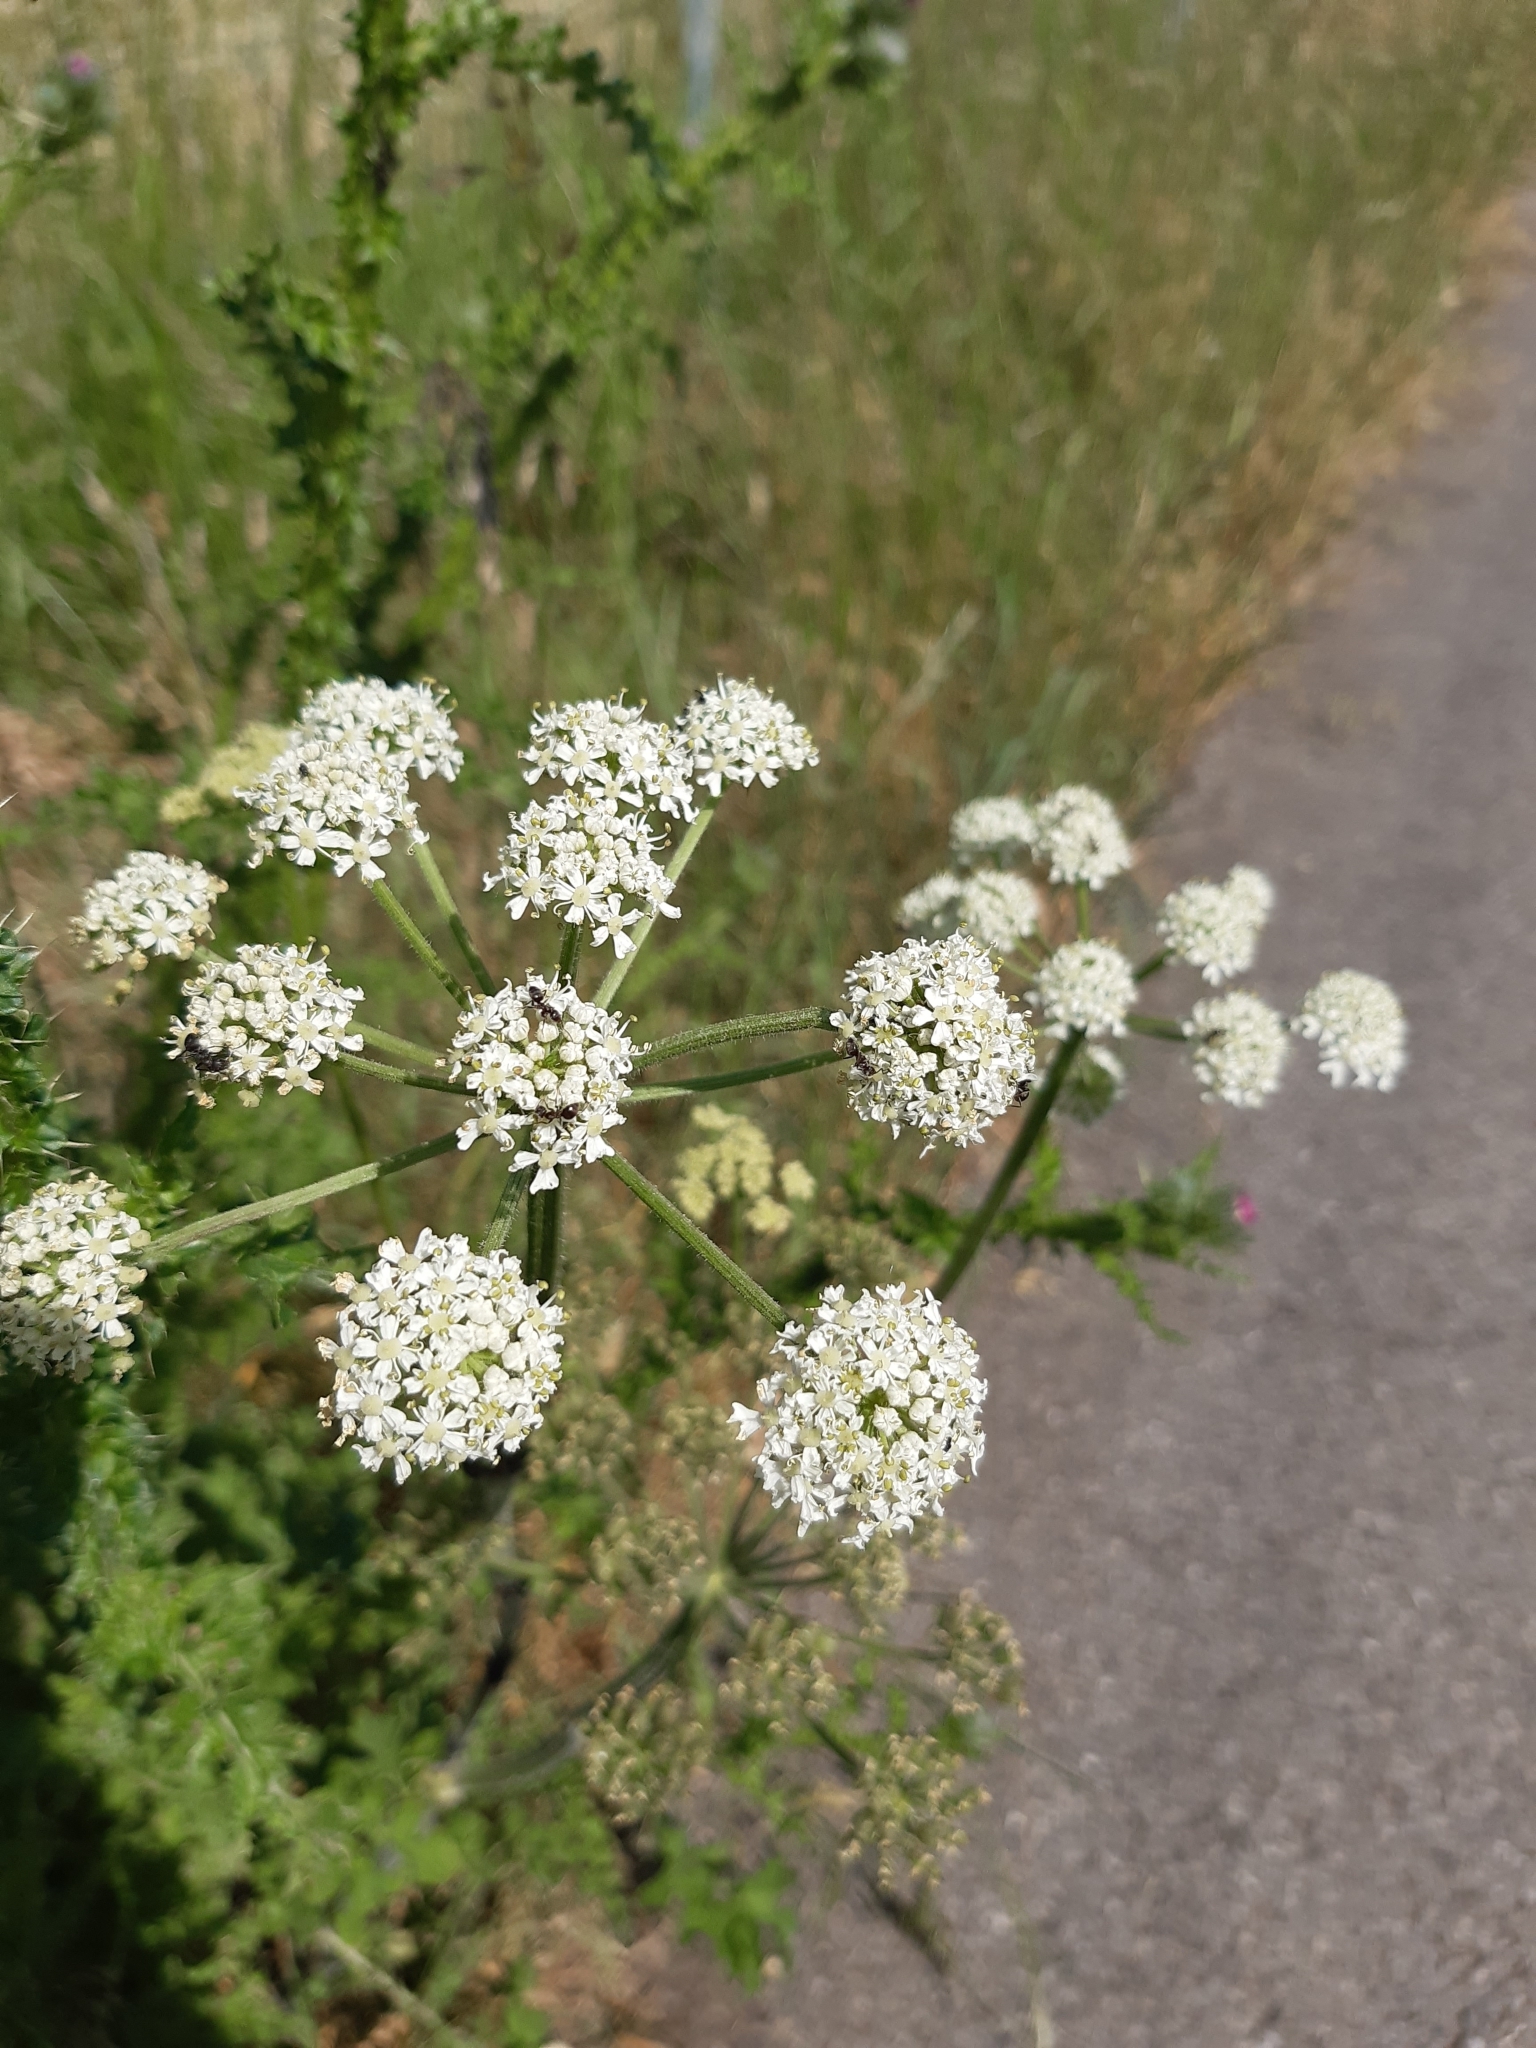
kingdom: Plantae
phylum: Tracheophyta
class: Magnoliopsida
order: Apiales
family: Apiaceae
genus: Heracleum
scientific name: Heracleum sphondylium
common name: Hogweed
